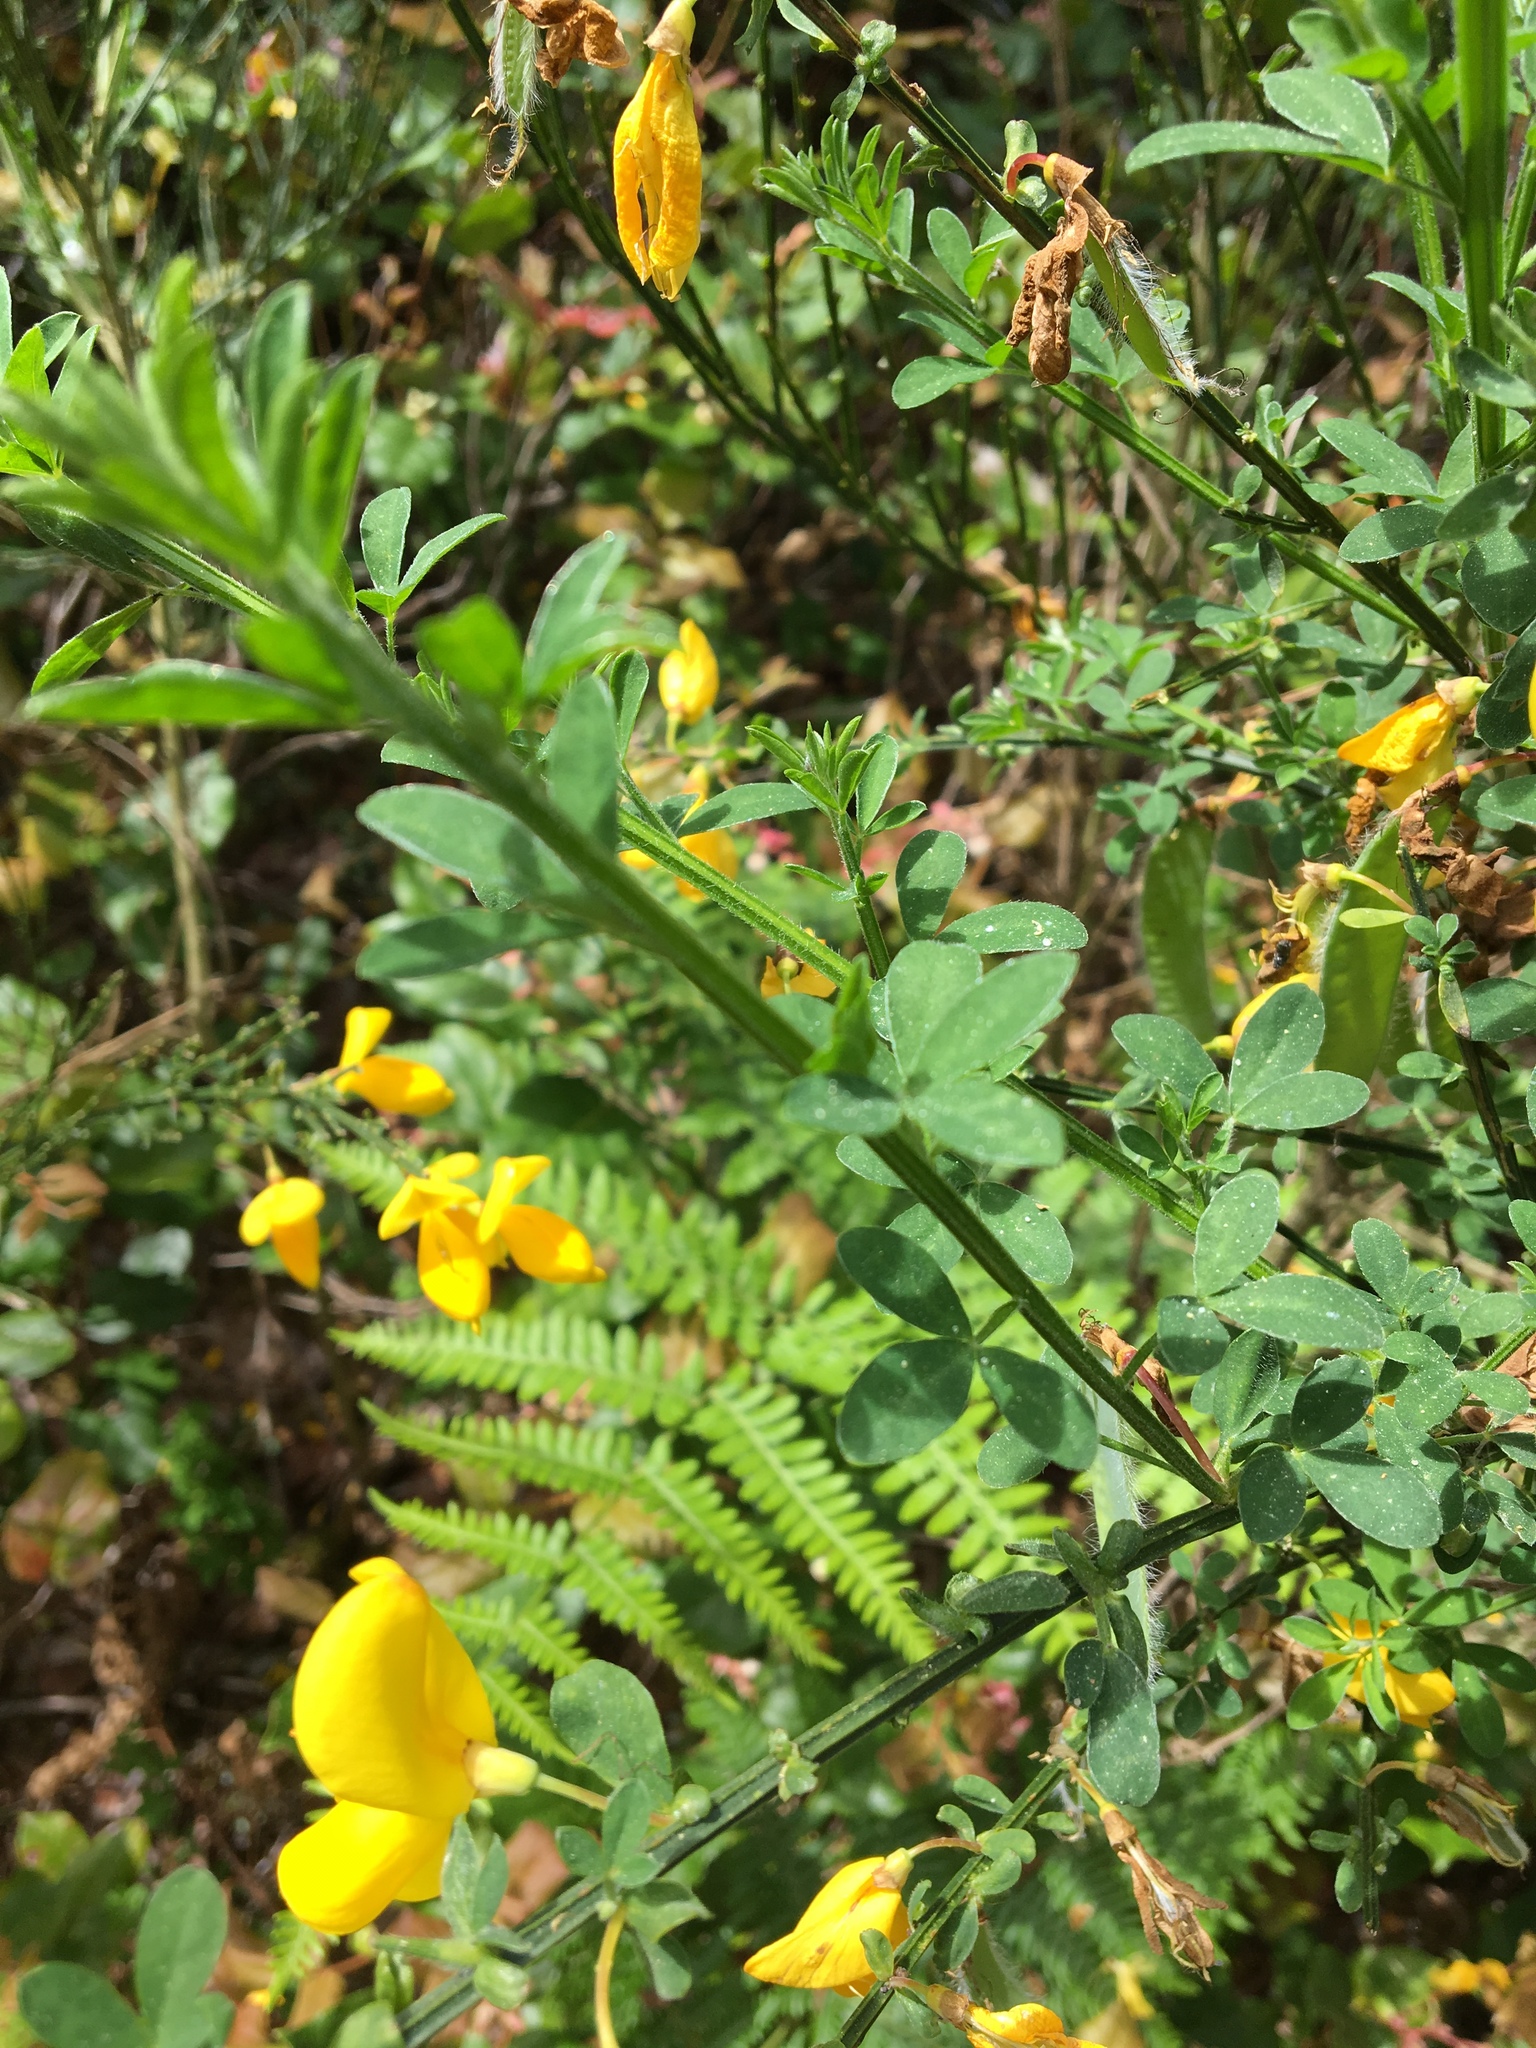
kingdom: Plantae
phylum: Tracheophyta
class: Magnoliopsida
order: Fabales
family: Fabaceae
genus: Cytisus
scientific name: Cytisus scoparius
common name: Scotch broom
